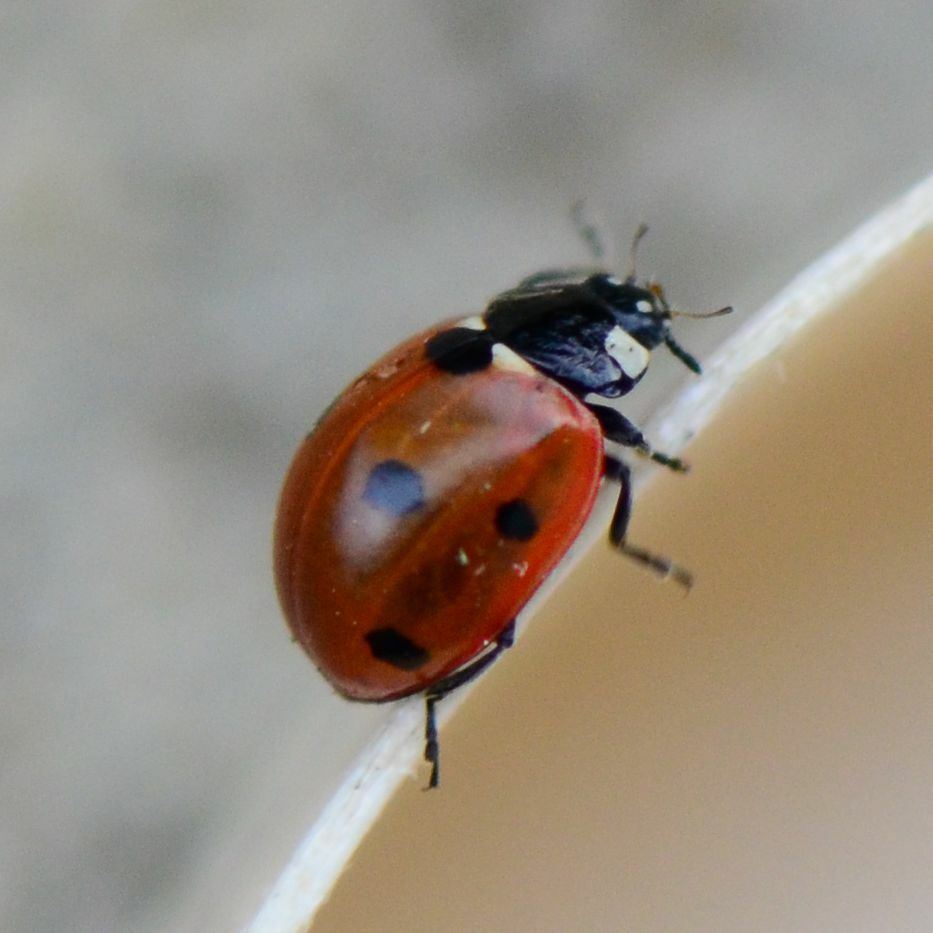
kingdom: Animalia
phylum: Arthropoda
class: Insecta
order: Coleoptera
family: Coccinellidae
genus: Coccinella
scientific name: Coccinella septempunctata
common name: Sevenspotted lady beetle
